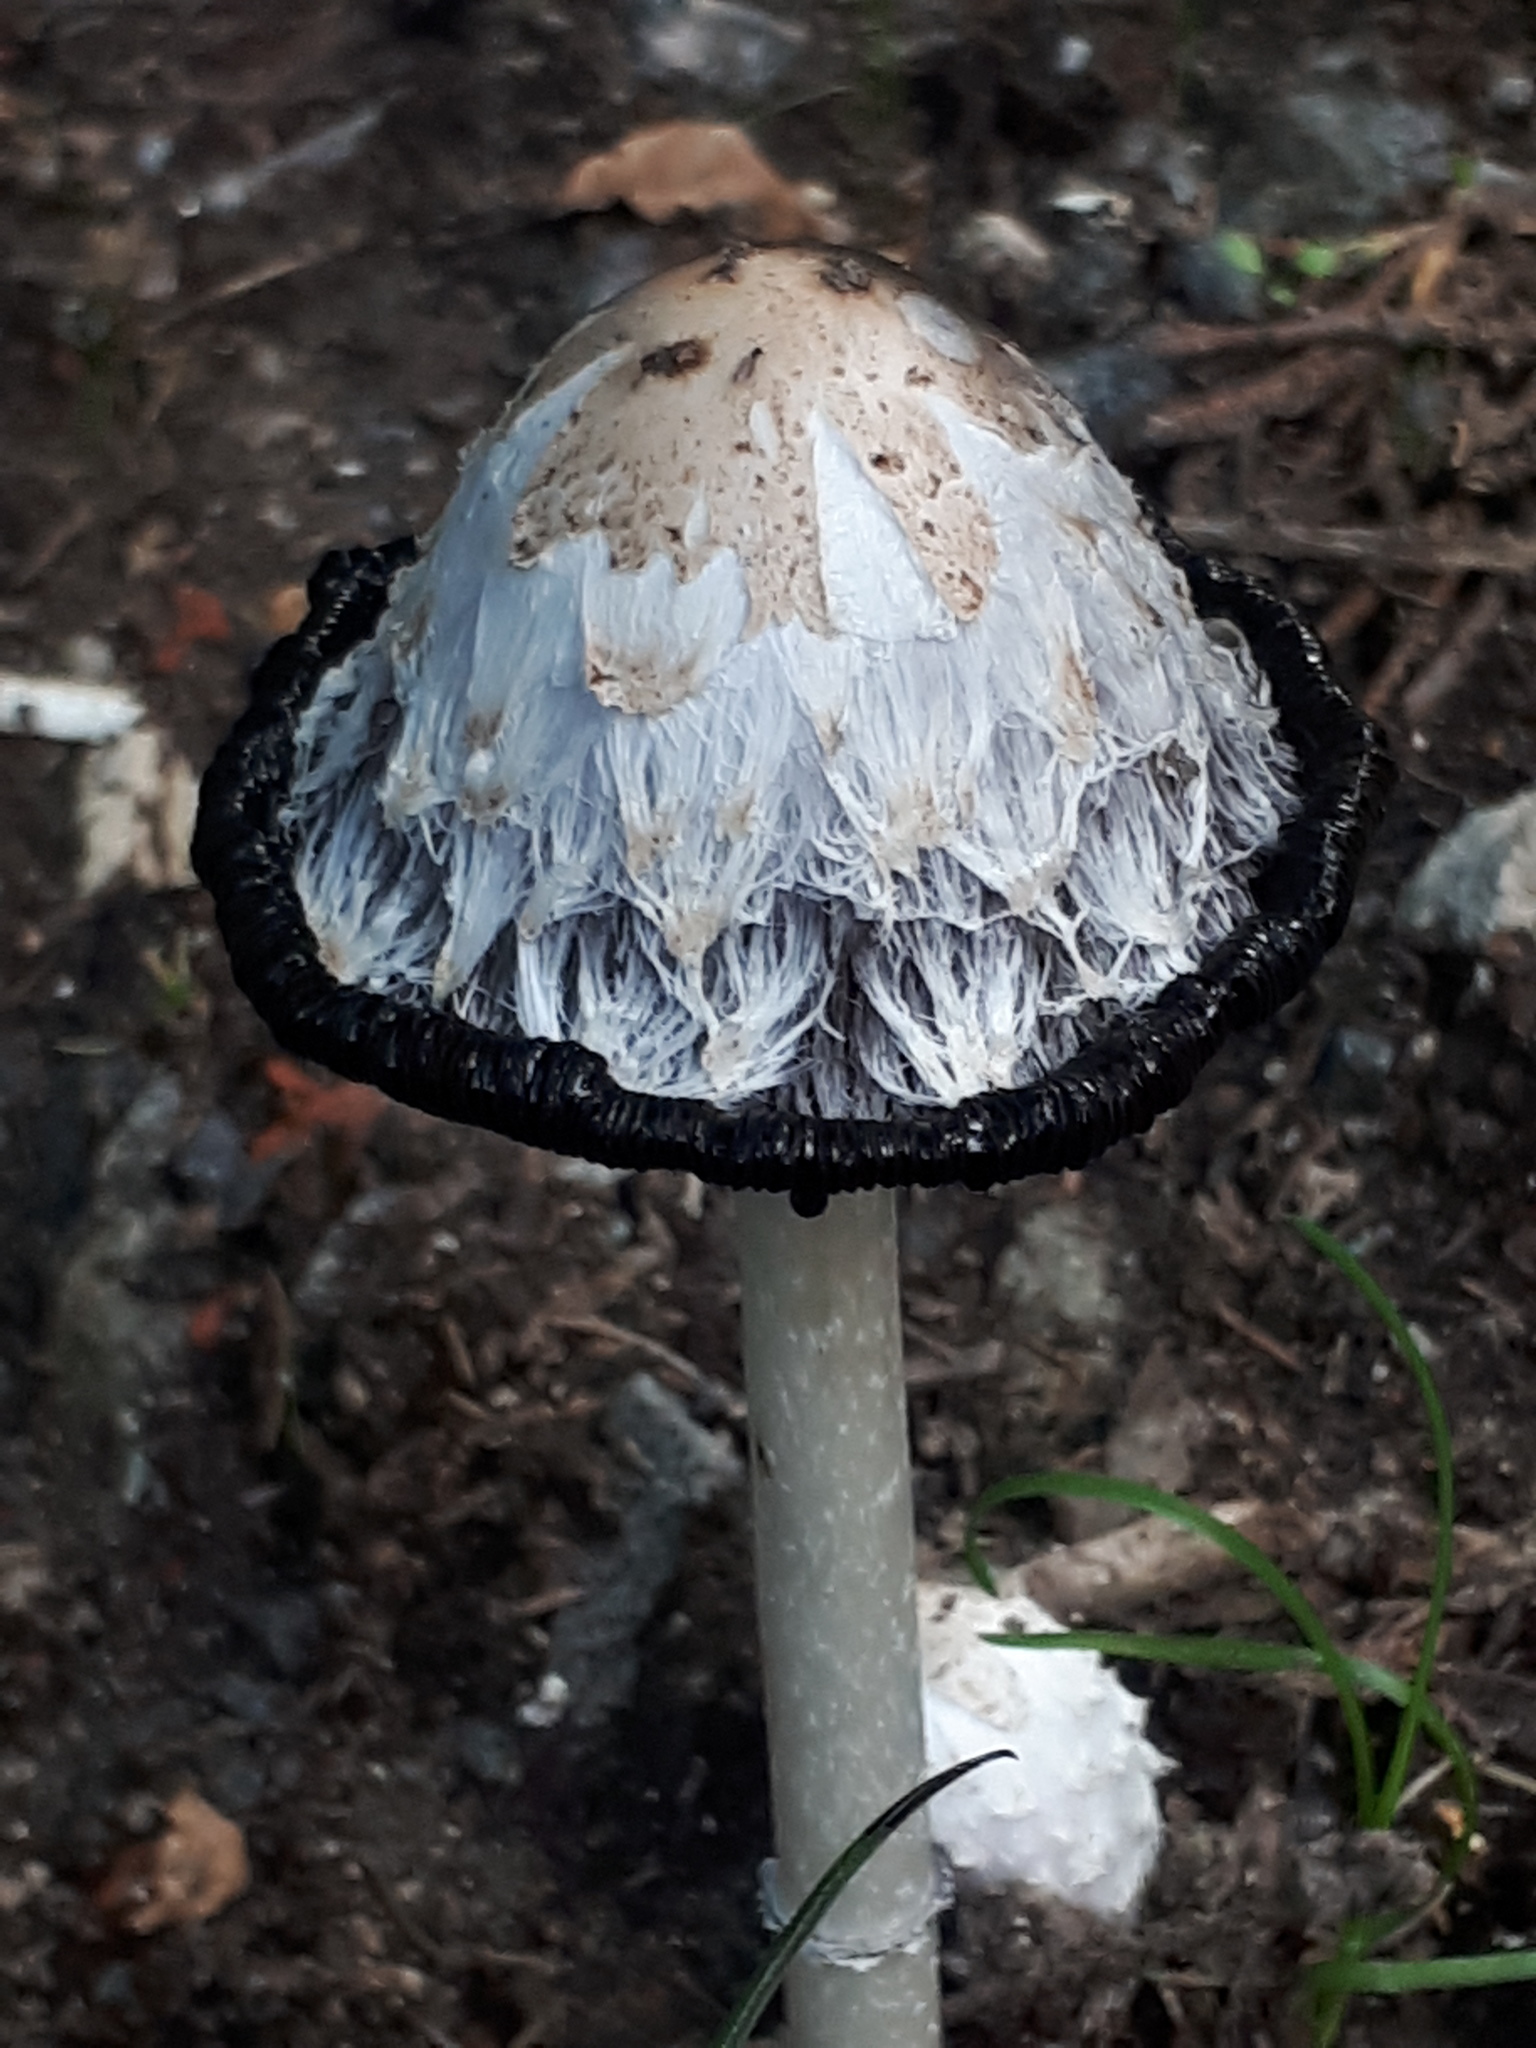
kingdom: Fungi
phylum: Basidiomycota
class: Agaricomycetes
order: Agaricales
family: Agaricaceae
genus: Coprinus
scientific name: Coprinus comatus
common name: Lawyer's wig
